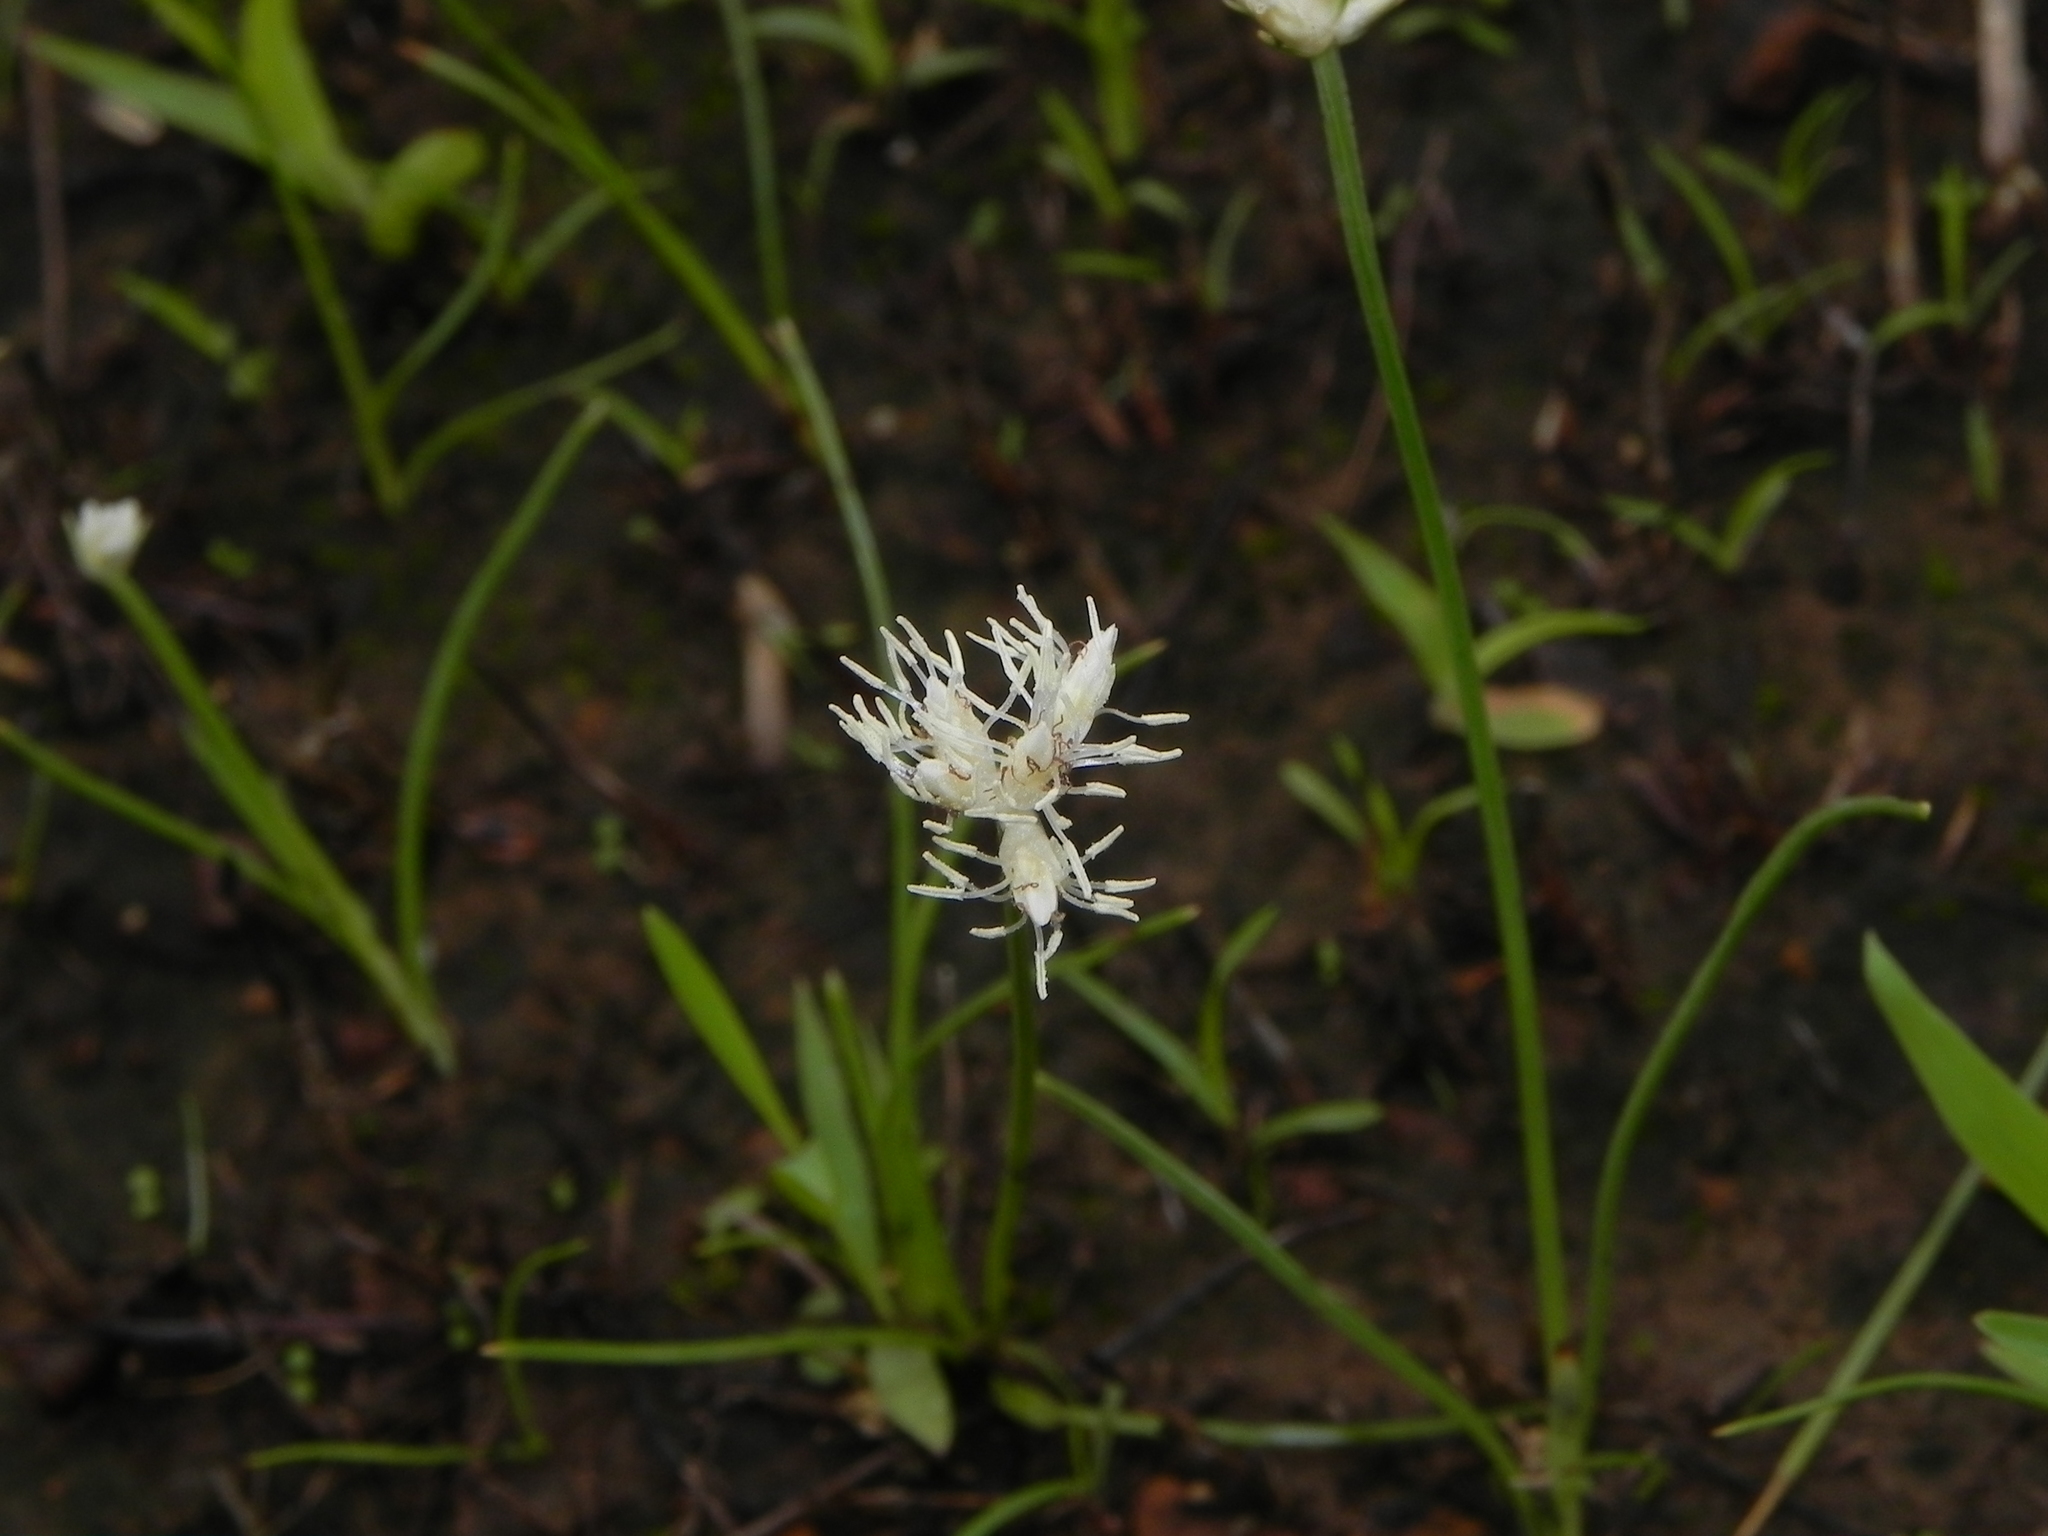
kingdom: Plantae
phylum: Tracheophyta
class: Liliopsida
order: Poales
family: Cyperaceae
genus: Fimbristylis
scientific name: Fimbristylis lawiana
